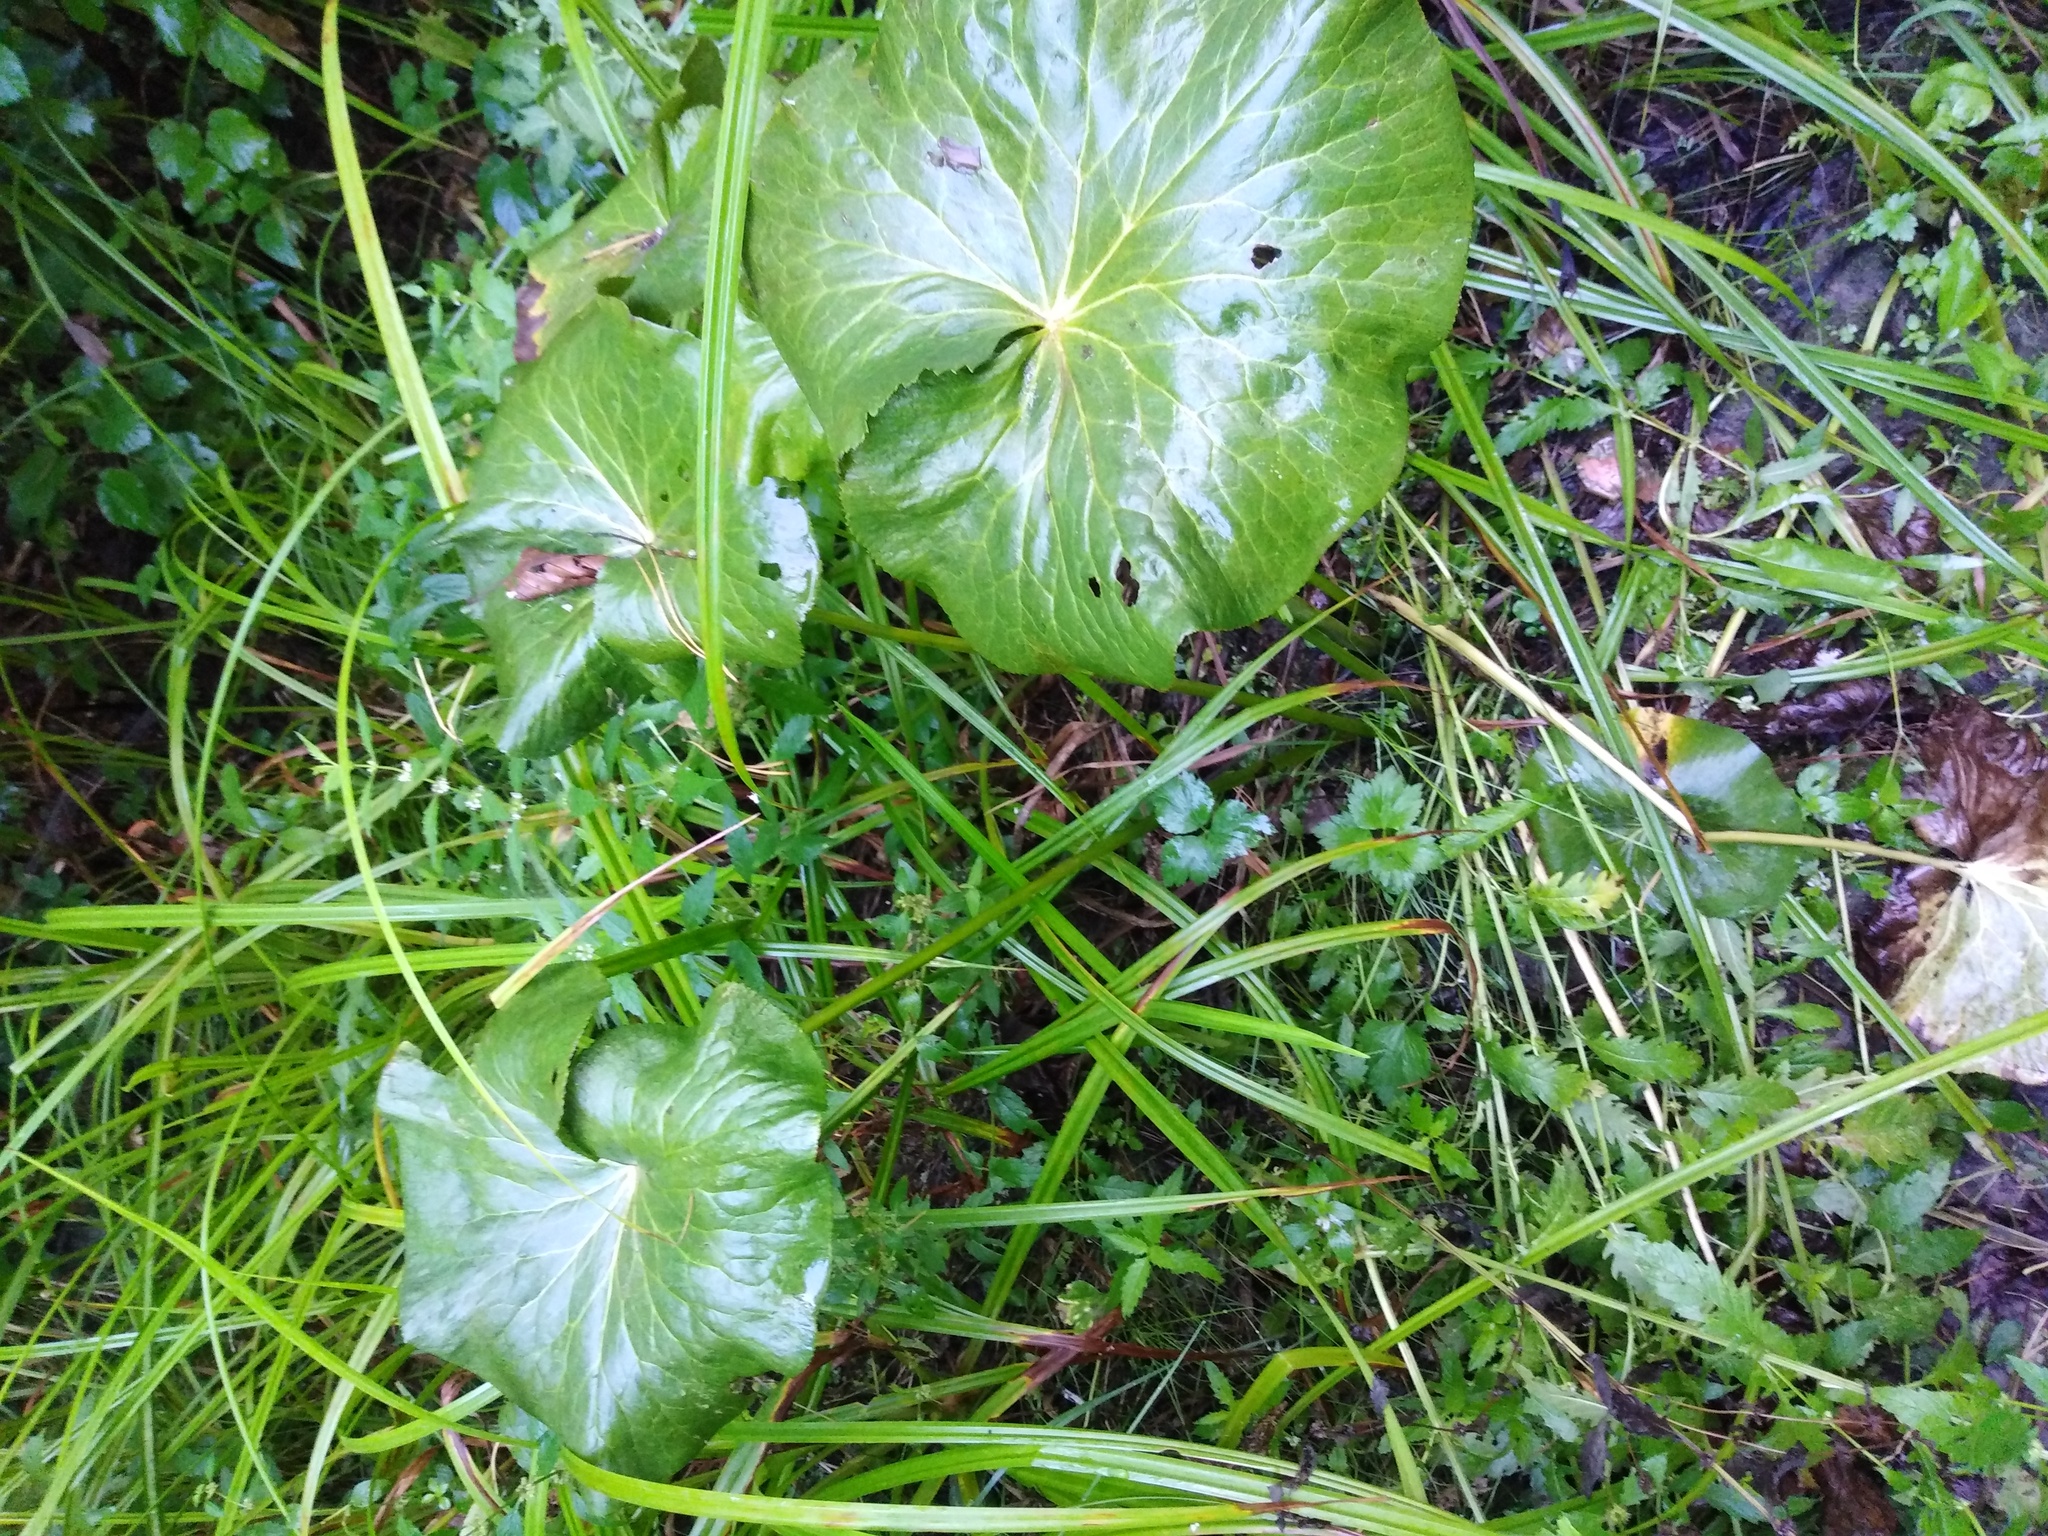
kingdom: Plantae
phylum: Tracheophyta
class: Magnoliopsida
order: Ranunculales
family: Ranunculaceae
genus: Caltha
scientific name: Caltha palustris
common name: Marsh marigold
